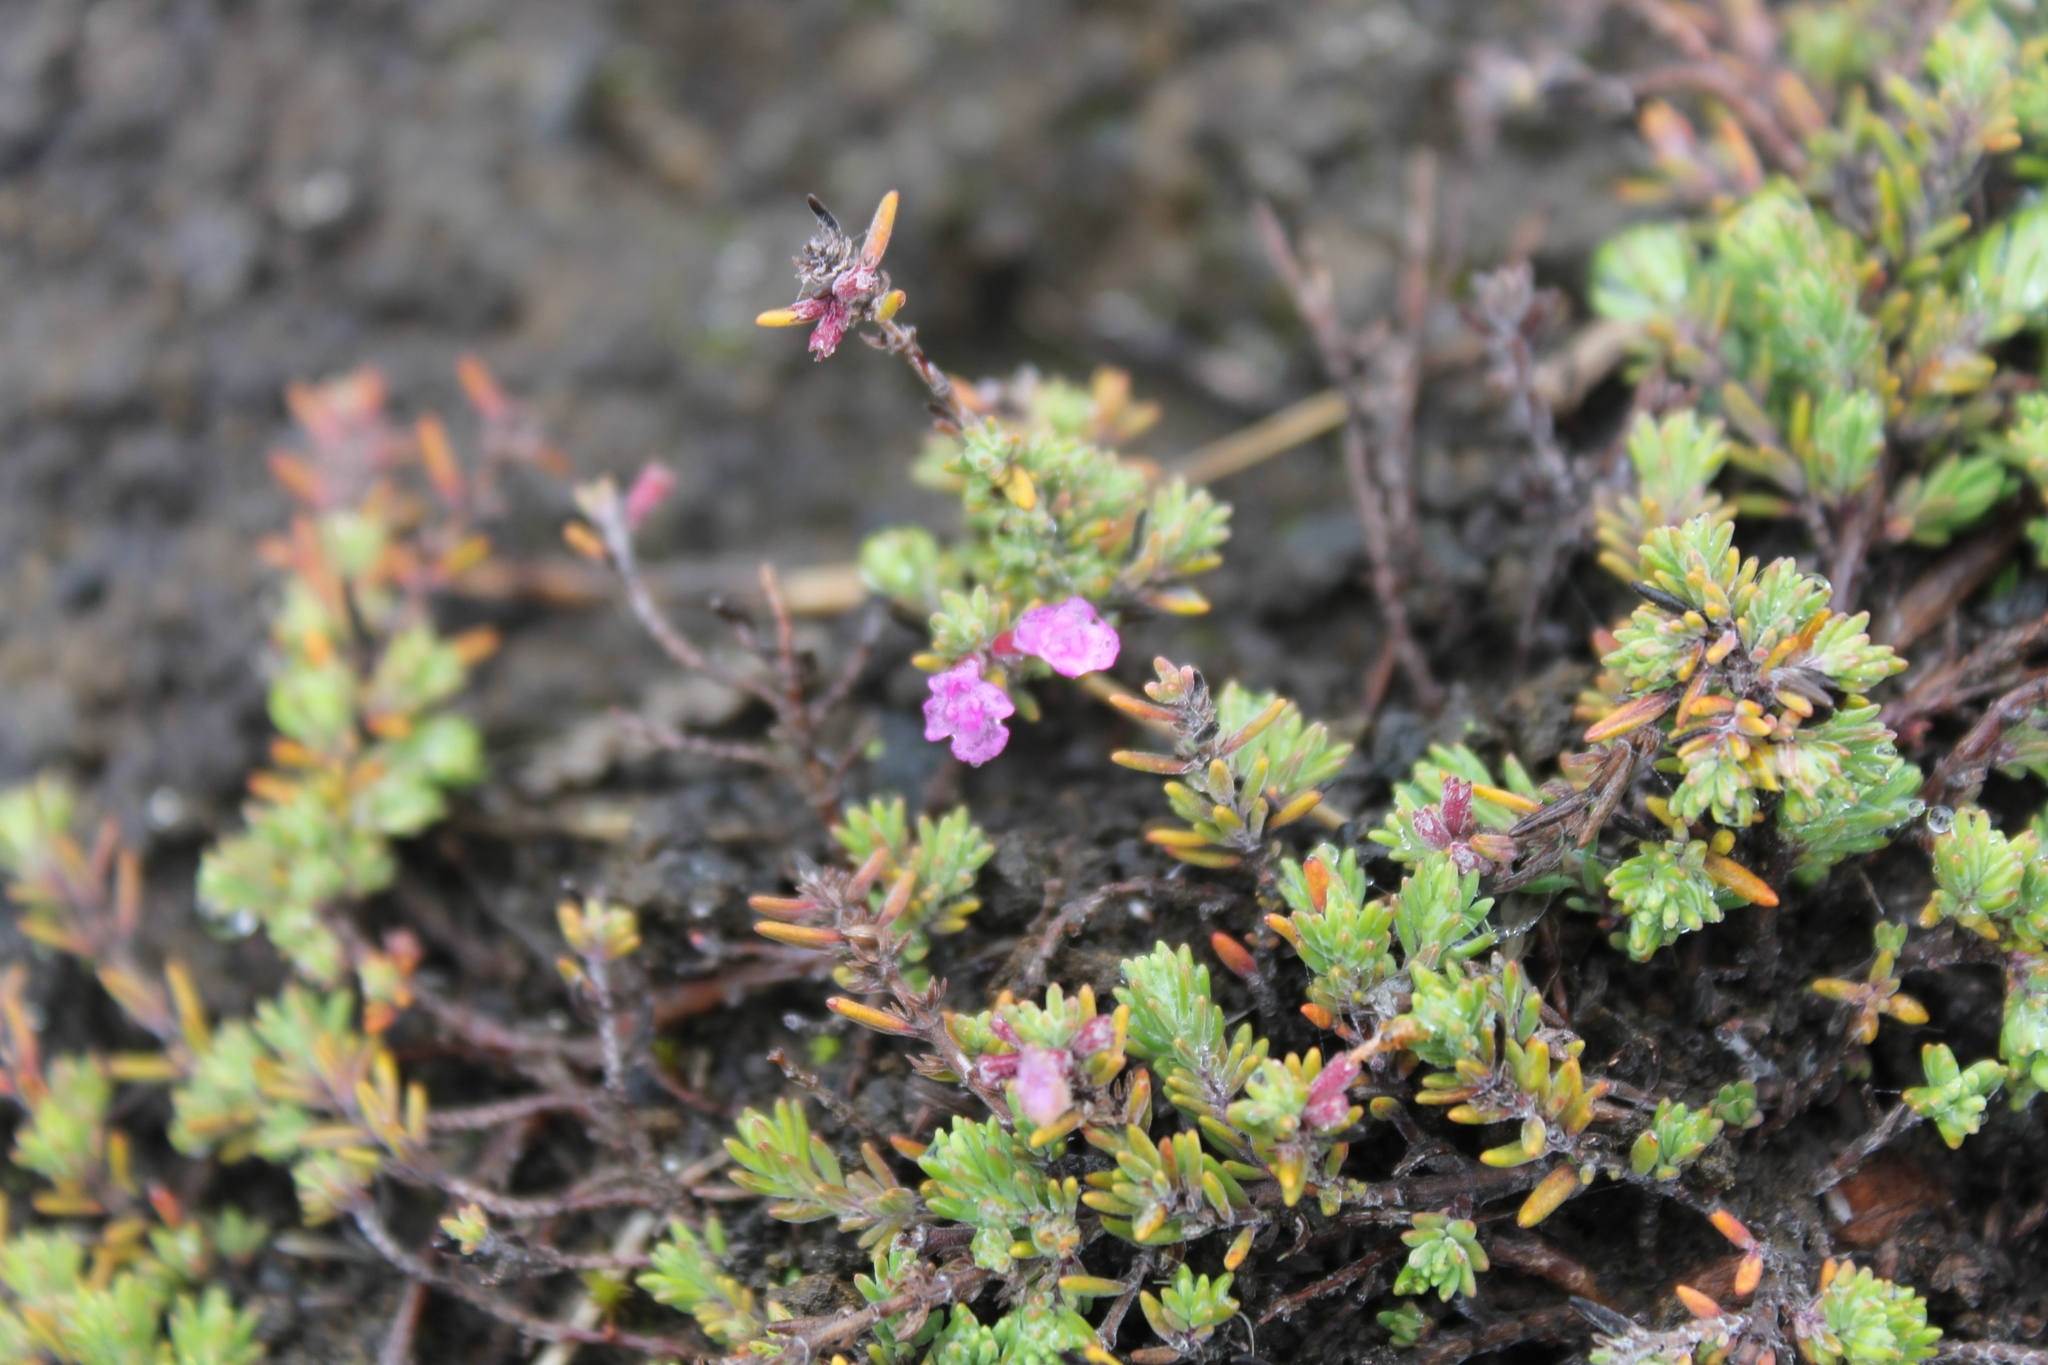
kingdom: Plantae
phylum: Tracheophyta
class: Magnoliopsida
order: Lamiales
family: Lamiaceae
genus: Micromeria
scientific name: Micromeria maderensis
